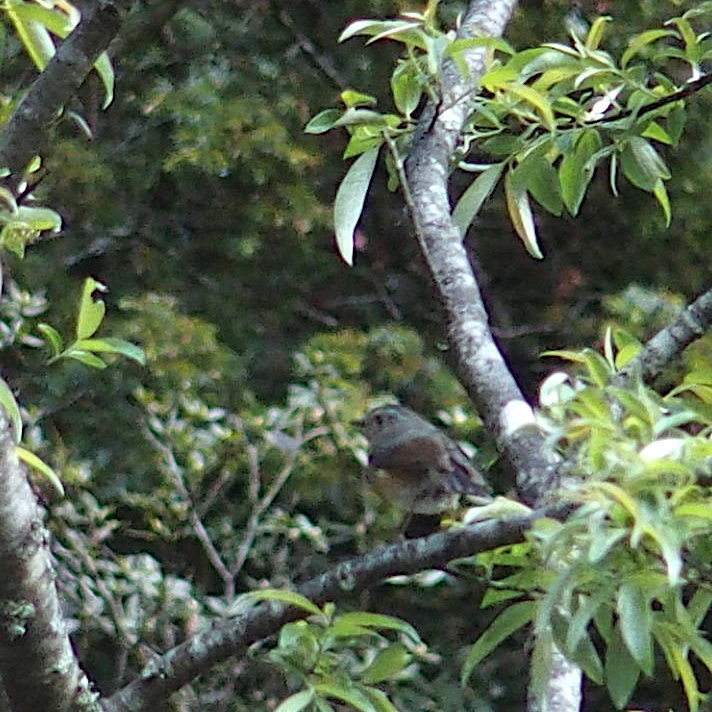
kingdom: Animalia
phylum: Chordata
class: Aves
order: Passeriformes
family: Muscicapidae
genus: Tarsiger
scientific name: Tarsiger johnstoniae
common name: Collared bush robin
